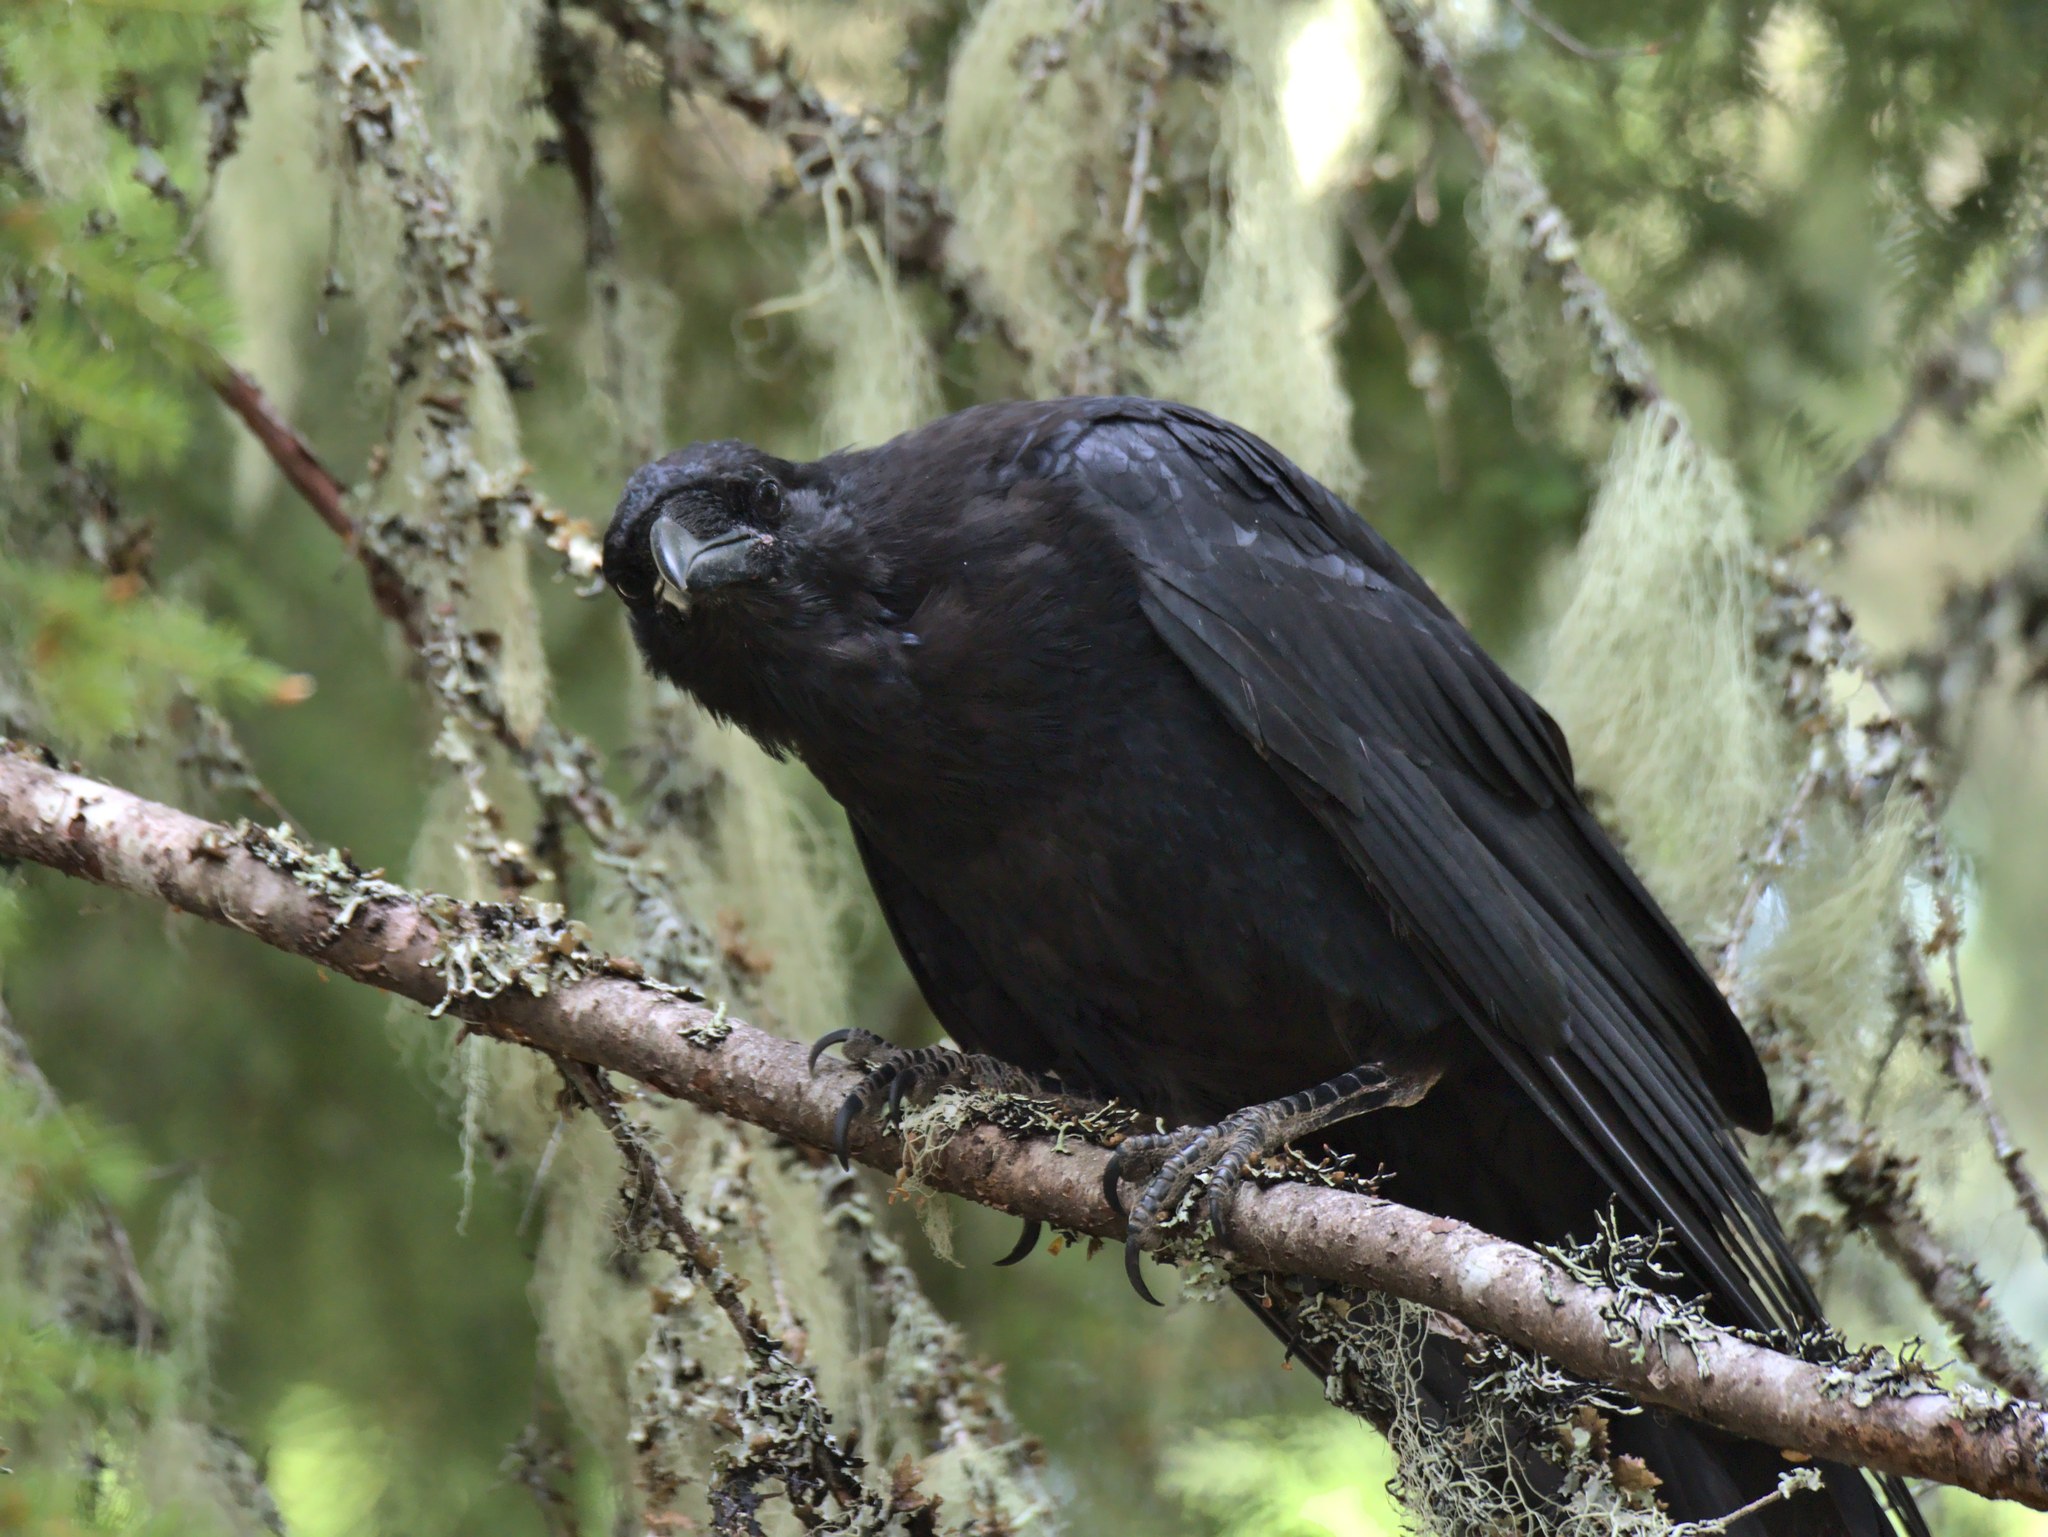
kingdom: Animalia
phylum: Chordata
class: Aves
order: Passeriformes
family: Corvidae
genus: Corvus
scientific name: Corvus corax
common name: Common raven
